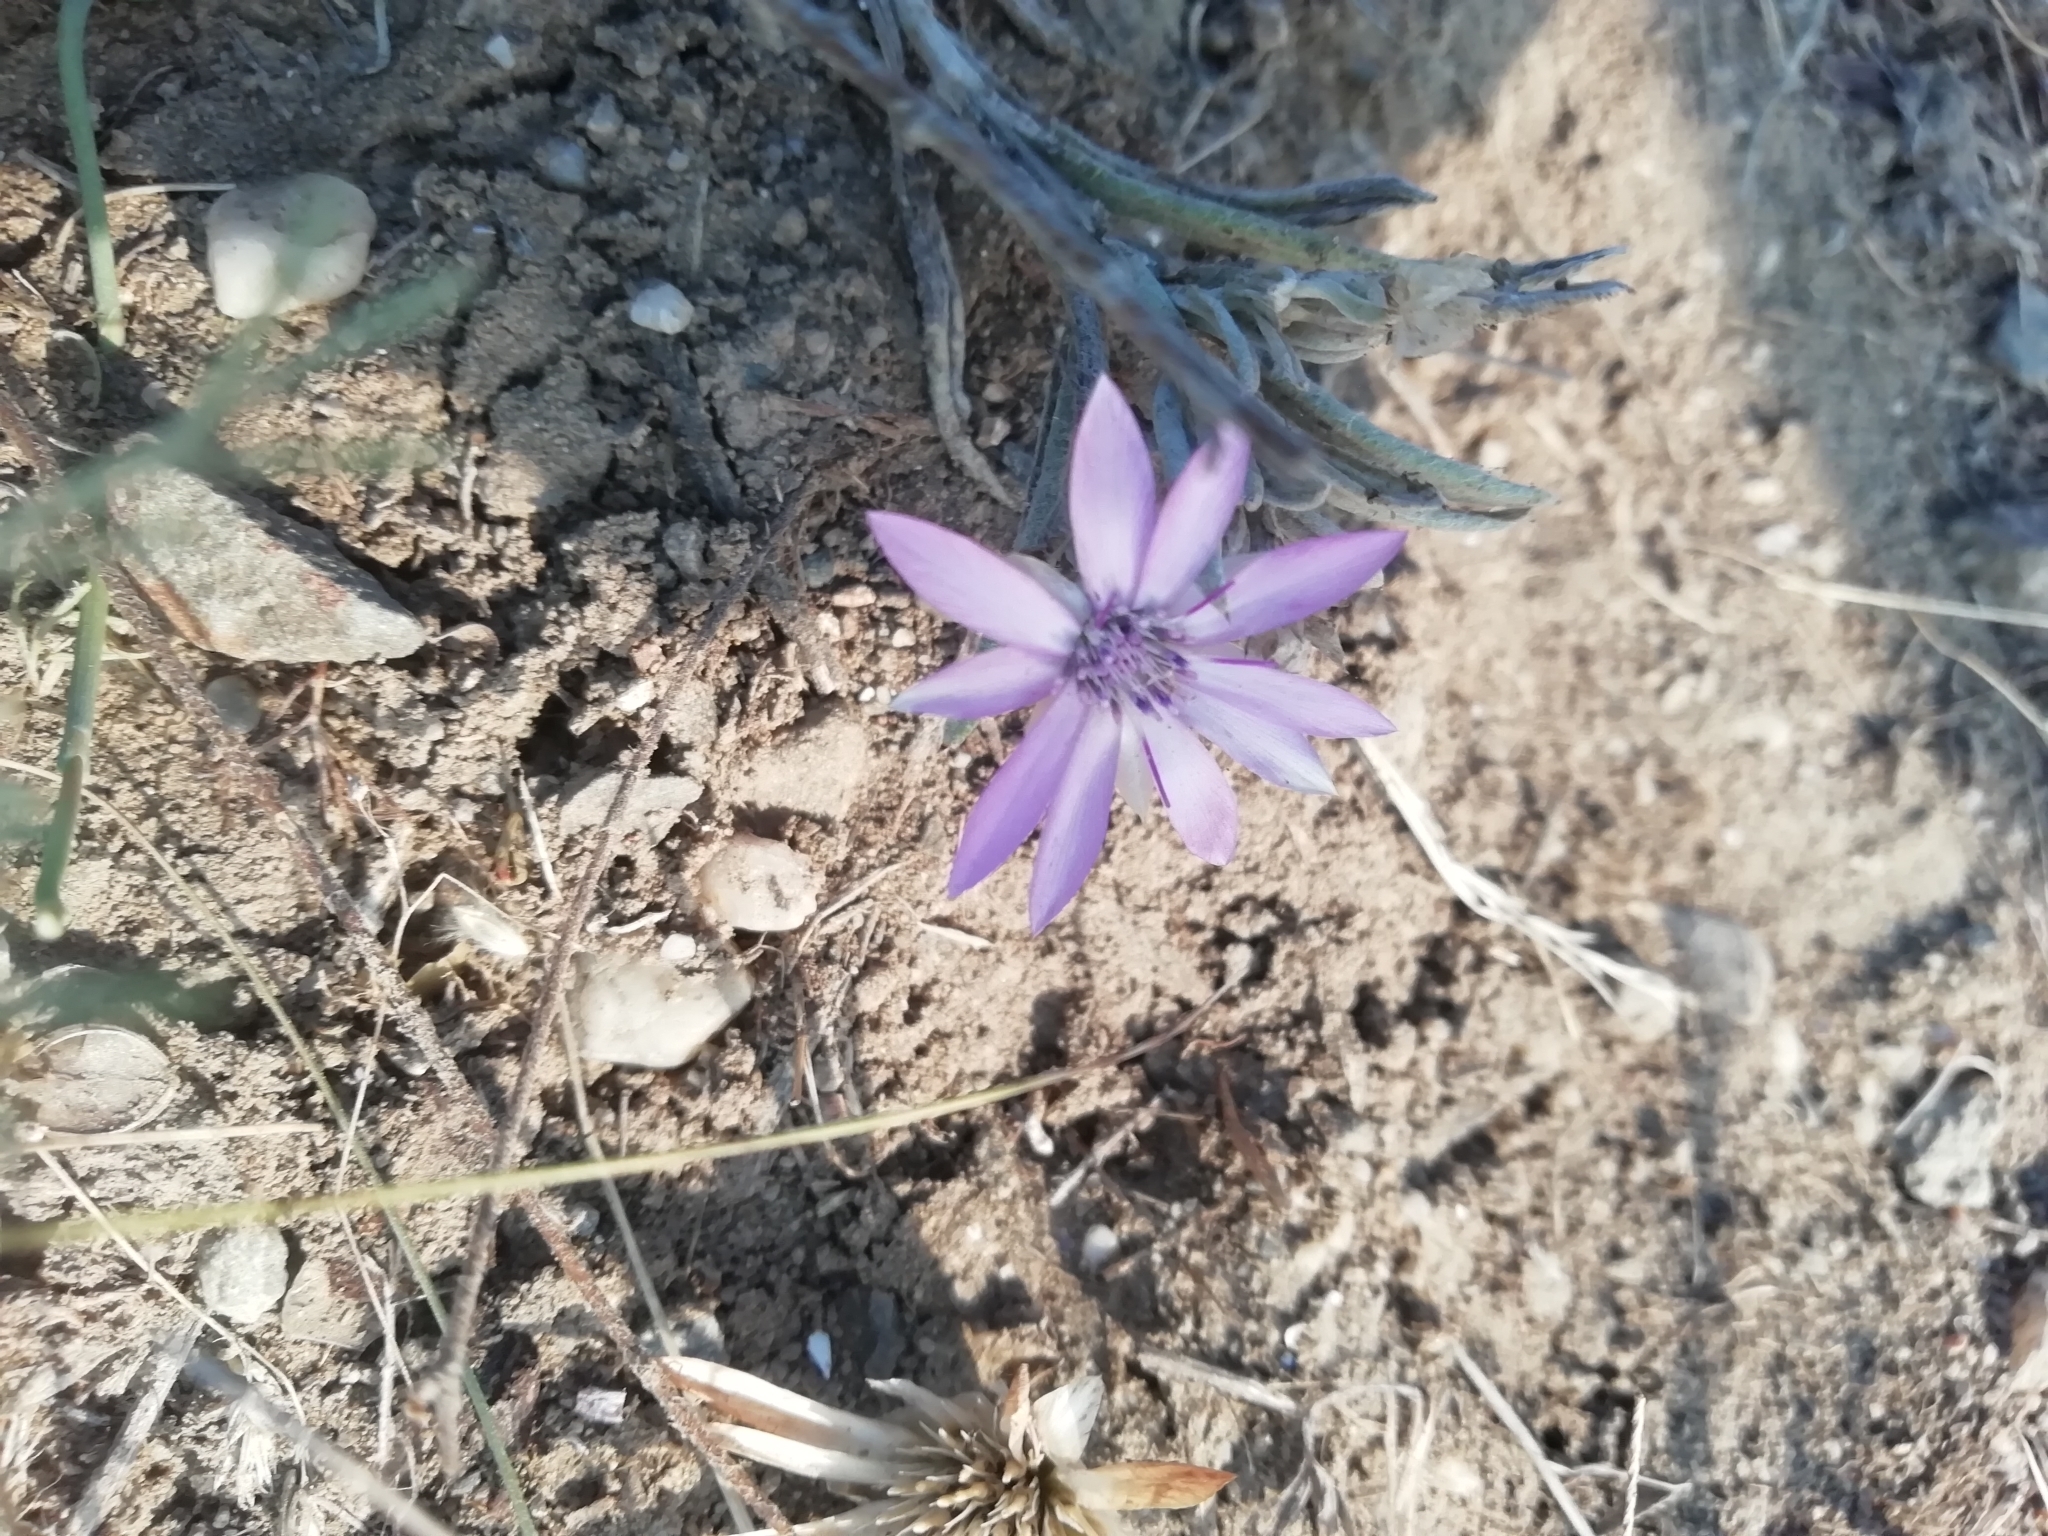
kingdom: Plantae
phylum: Tracheophyta
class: Magnoliopsida
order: Asterales
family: Asteraceae
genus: Xeranthemum
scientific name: Xeranthemum annuum
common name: Immortelle
